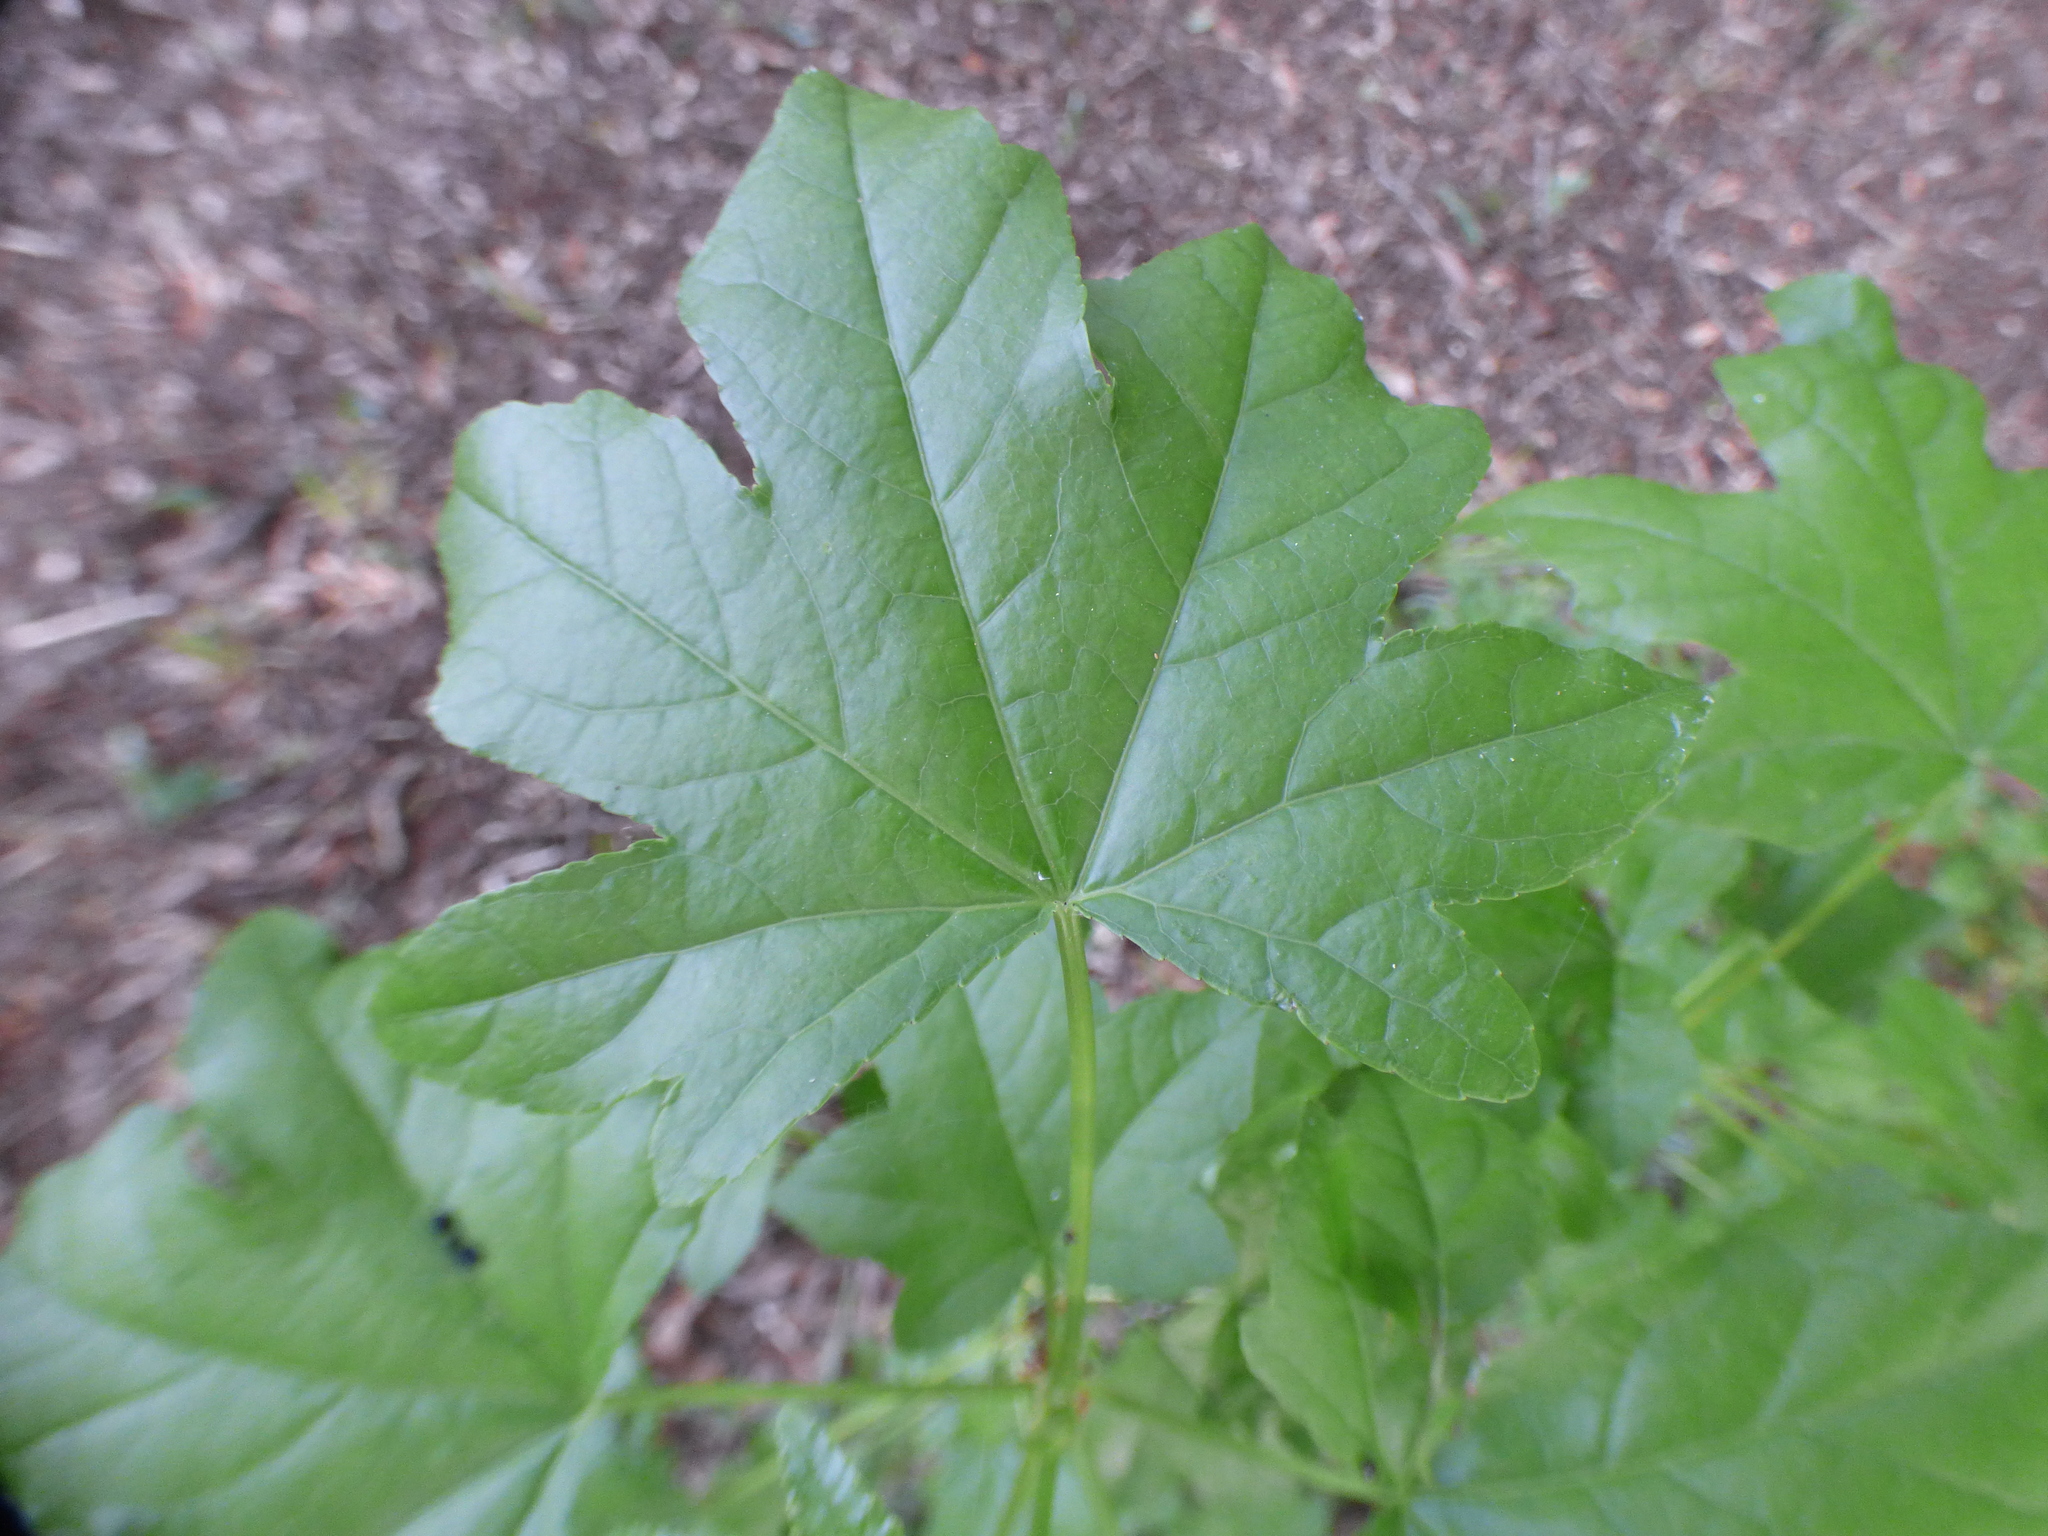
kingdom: Plantae
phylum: Tracheophyta
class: Magnoliopsida
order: Saxifragales
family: Altingiaceae
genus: Liquidambar
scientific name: Liquidambar styraciflua
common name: Sweet gum
